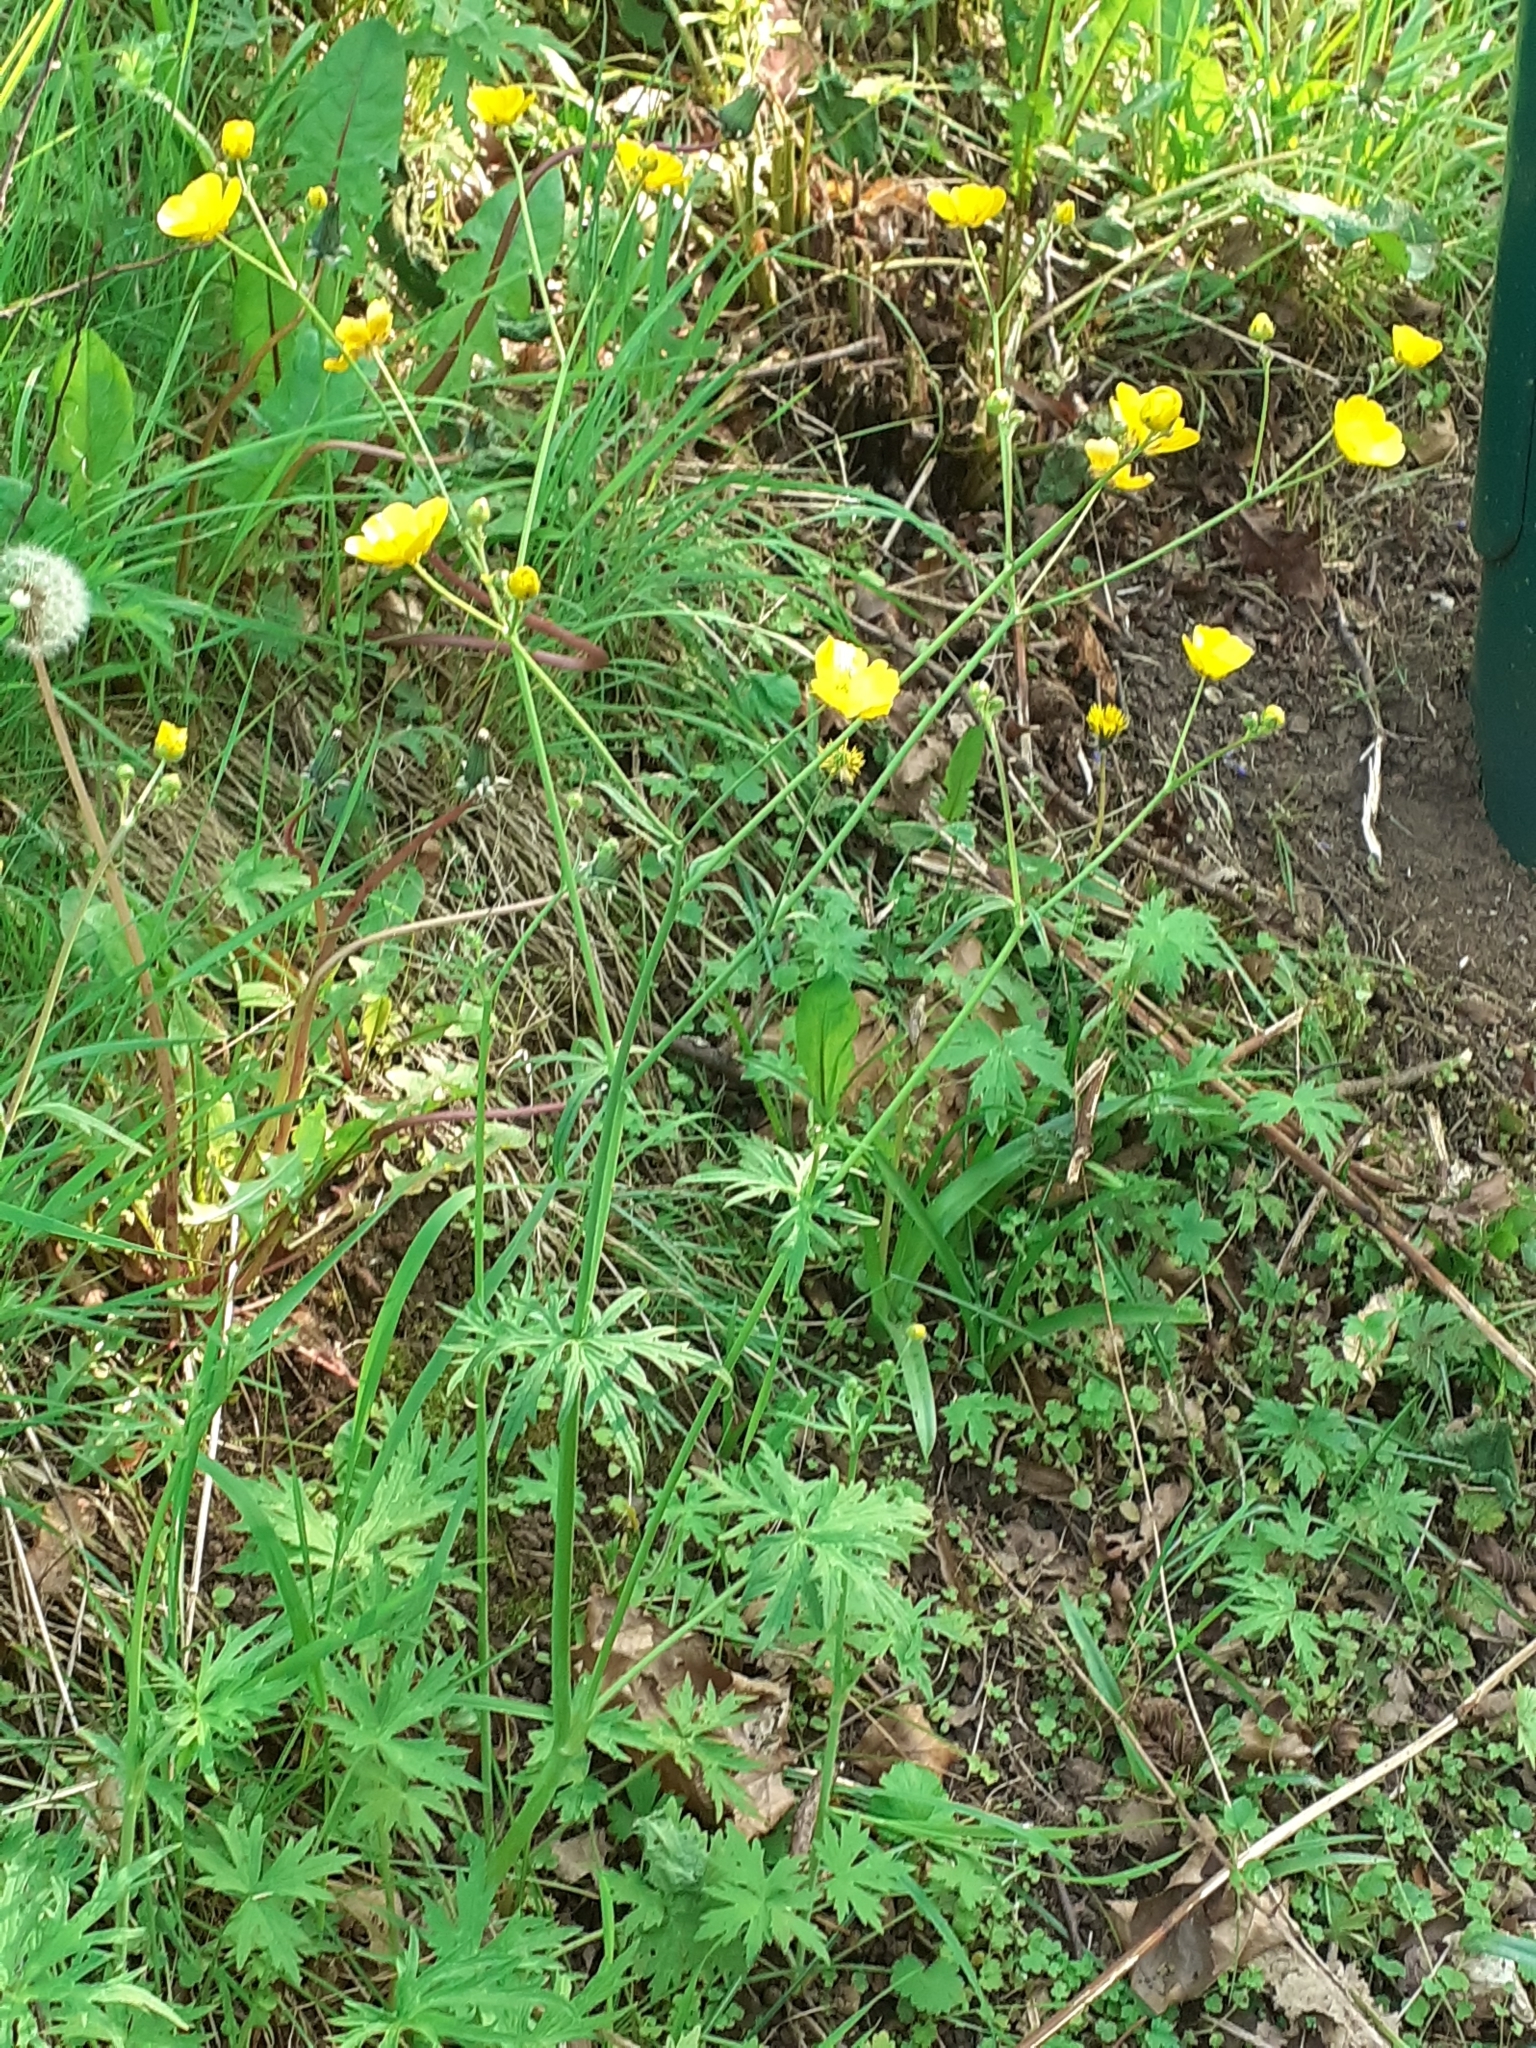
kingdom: Plantae
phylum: Tracheophyta
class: Magnoliopsida
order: Ranunculales
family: Ranunculaceae
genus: Ranunculus
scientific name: Ranunculus acris
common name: Meadow buttercup
